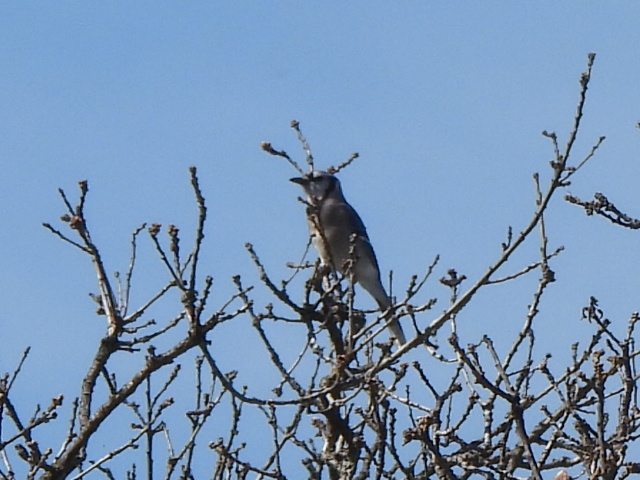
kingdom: Animalia
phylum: Chordata
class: Aves
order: Passeriformes
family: Corvidae
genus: Cyanocitta
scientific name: Cyanocitta cristata
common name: Blue jay
